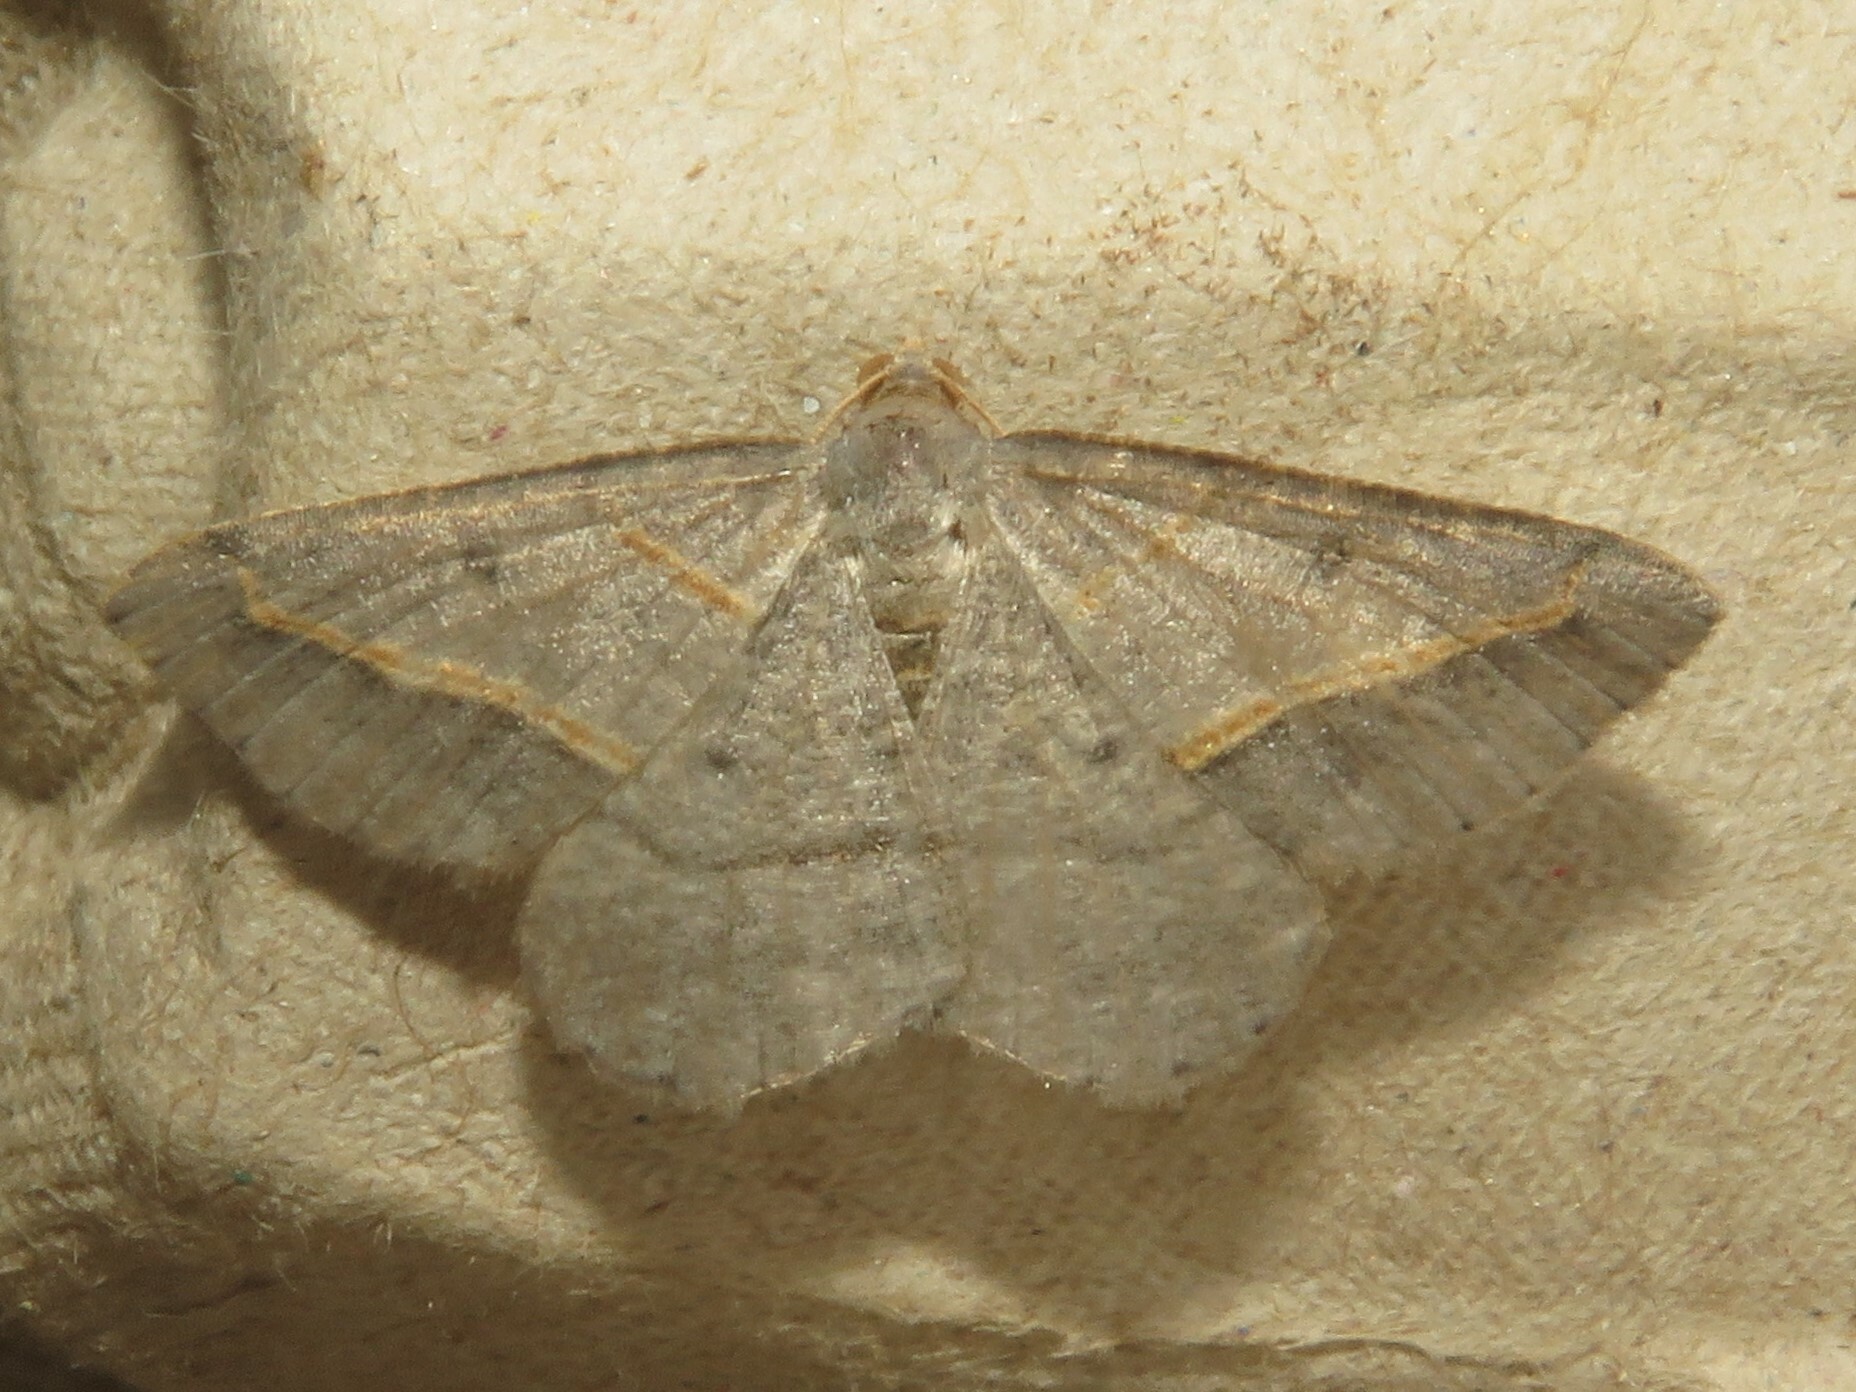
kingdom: Animalia
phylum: Arthropoda
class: Insecta
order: Lepidoptera
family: Geometridae
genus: Digrammia
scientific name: Digrammia mellistrigata
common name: Yellow-lined angle
